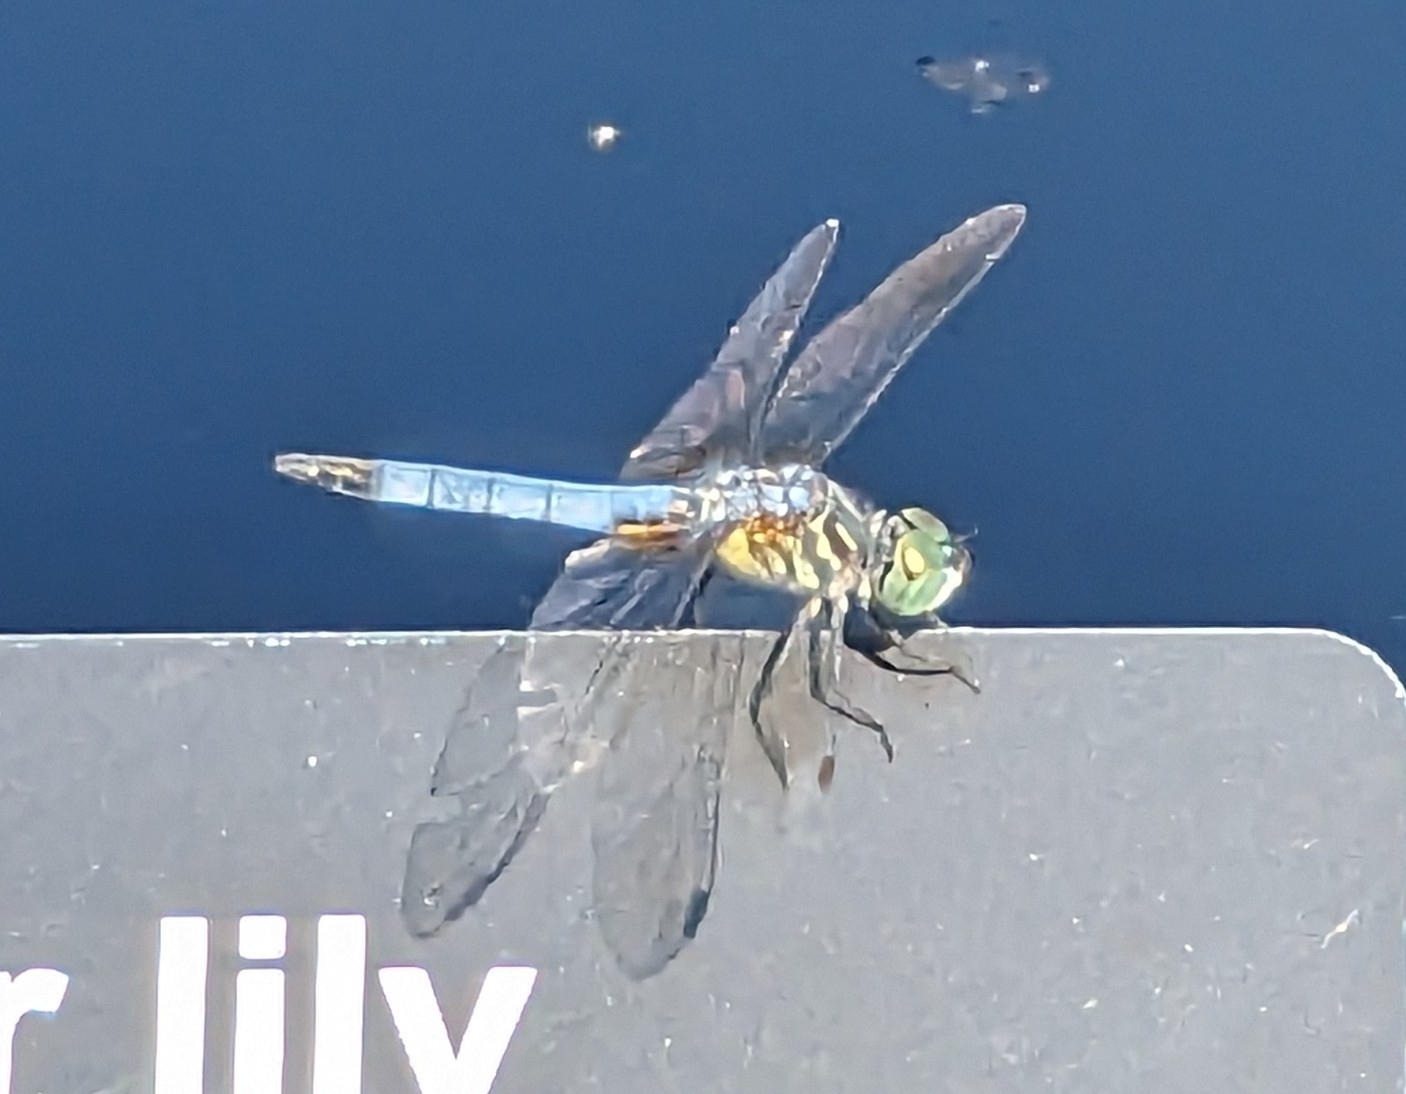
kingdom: Animalia
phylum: Arthropoda
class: Insecta
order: Odonata
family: Libellulidae
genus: Pachydiplax
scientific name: Pachydiplax longipennis
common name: Blue dasher
